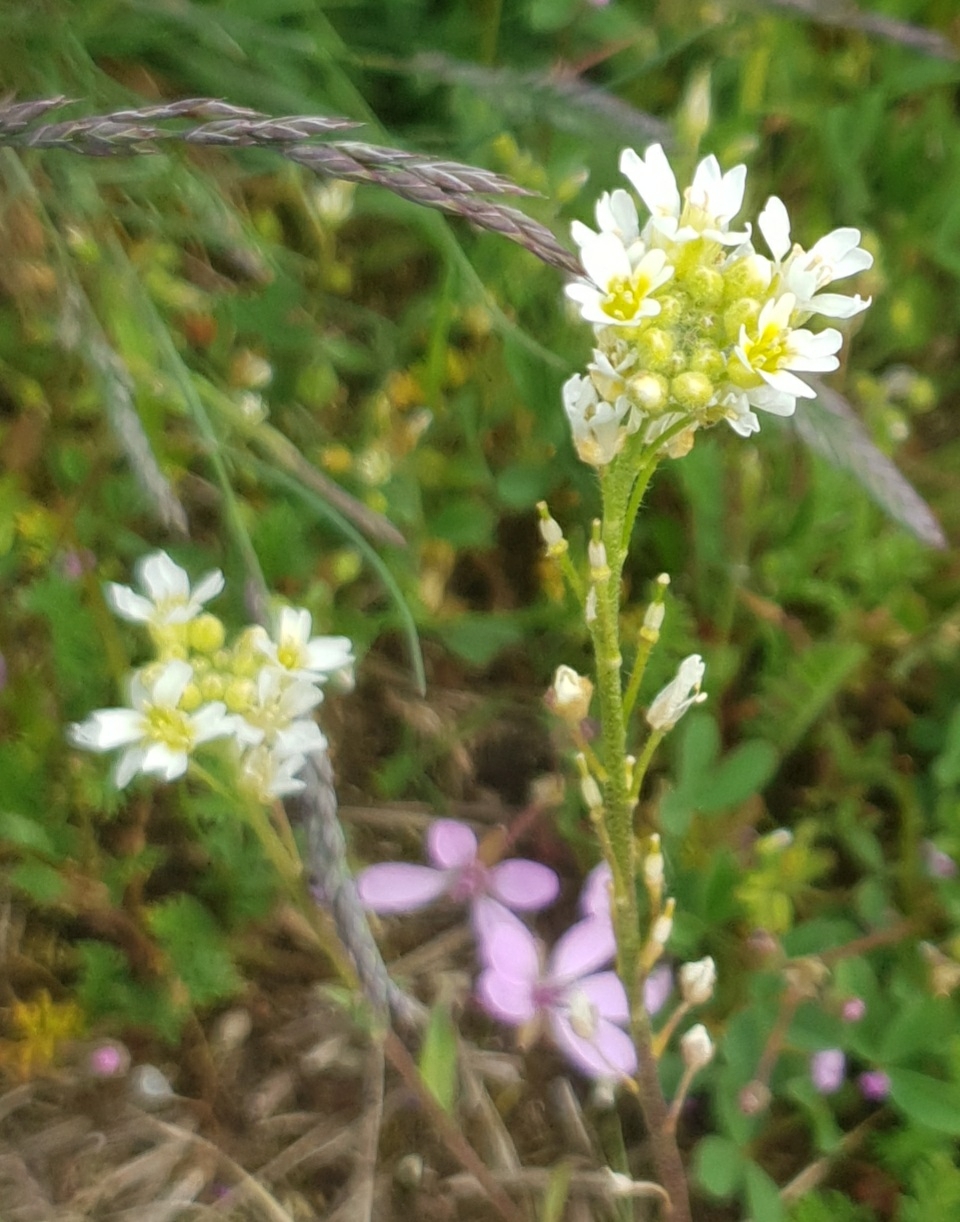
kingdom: Plantae
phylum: Tracheophyta
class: Magnoliopsida
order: Brassicales
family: Brassicaceae
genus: Berteroa
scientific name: Berteroa incana
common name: Hoary alison
